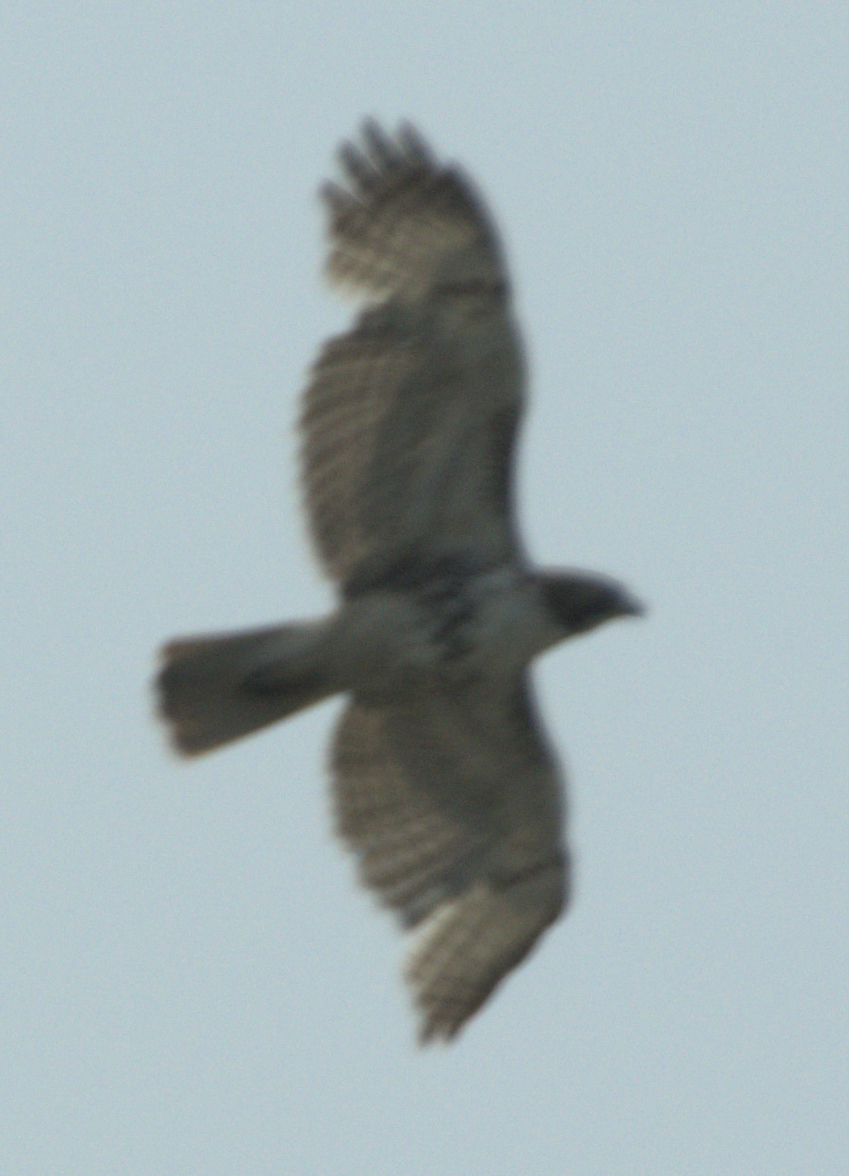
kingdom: Animalia
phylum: Chordata
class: Aves
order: Accipitriformes
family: Accipitridae
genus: Buteo
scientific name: Buteo jamaicensis
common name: Red-tailed hawk
